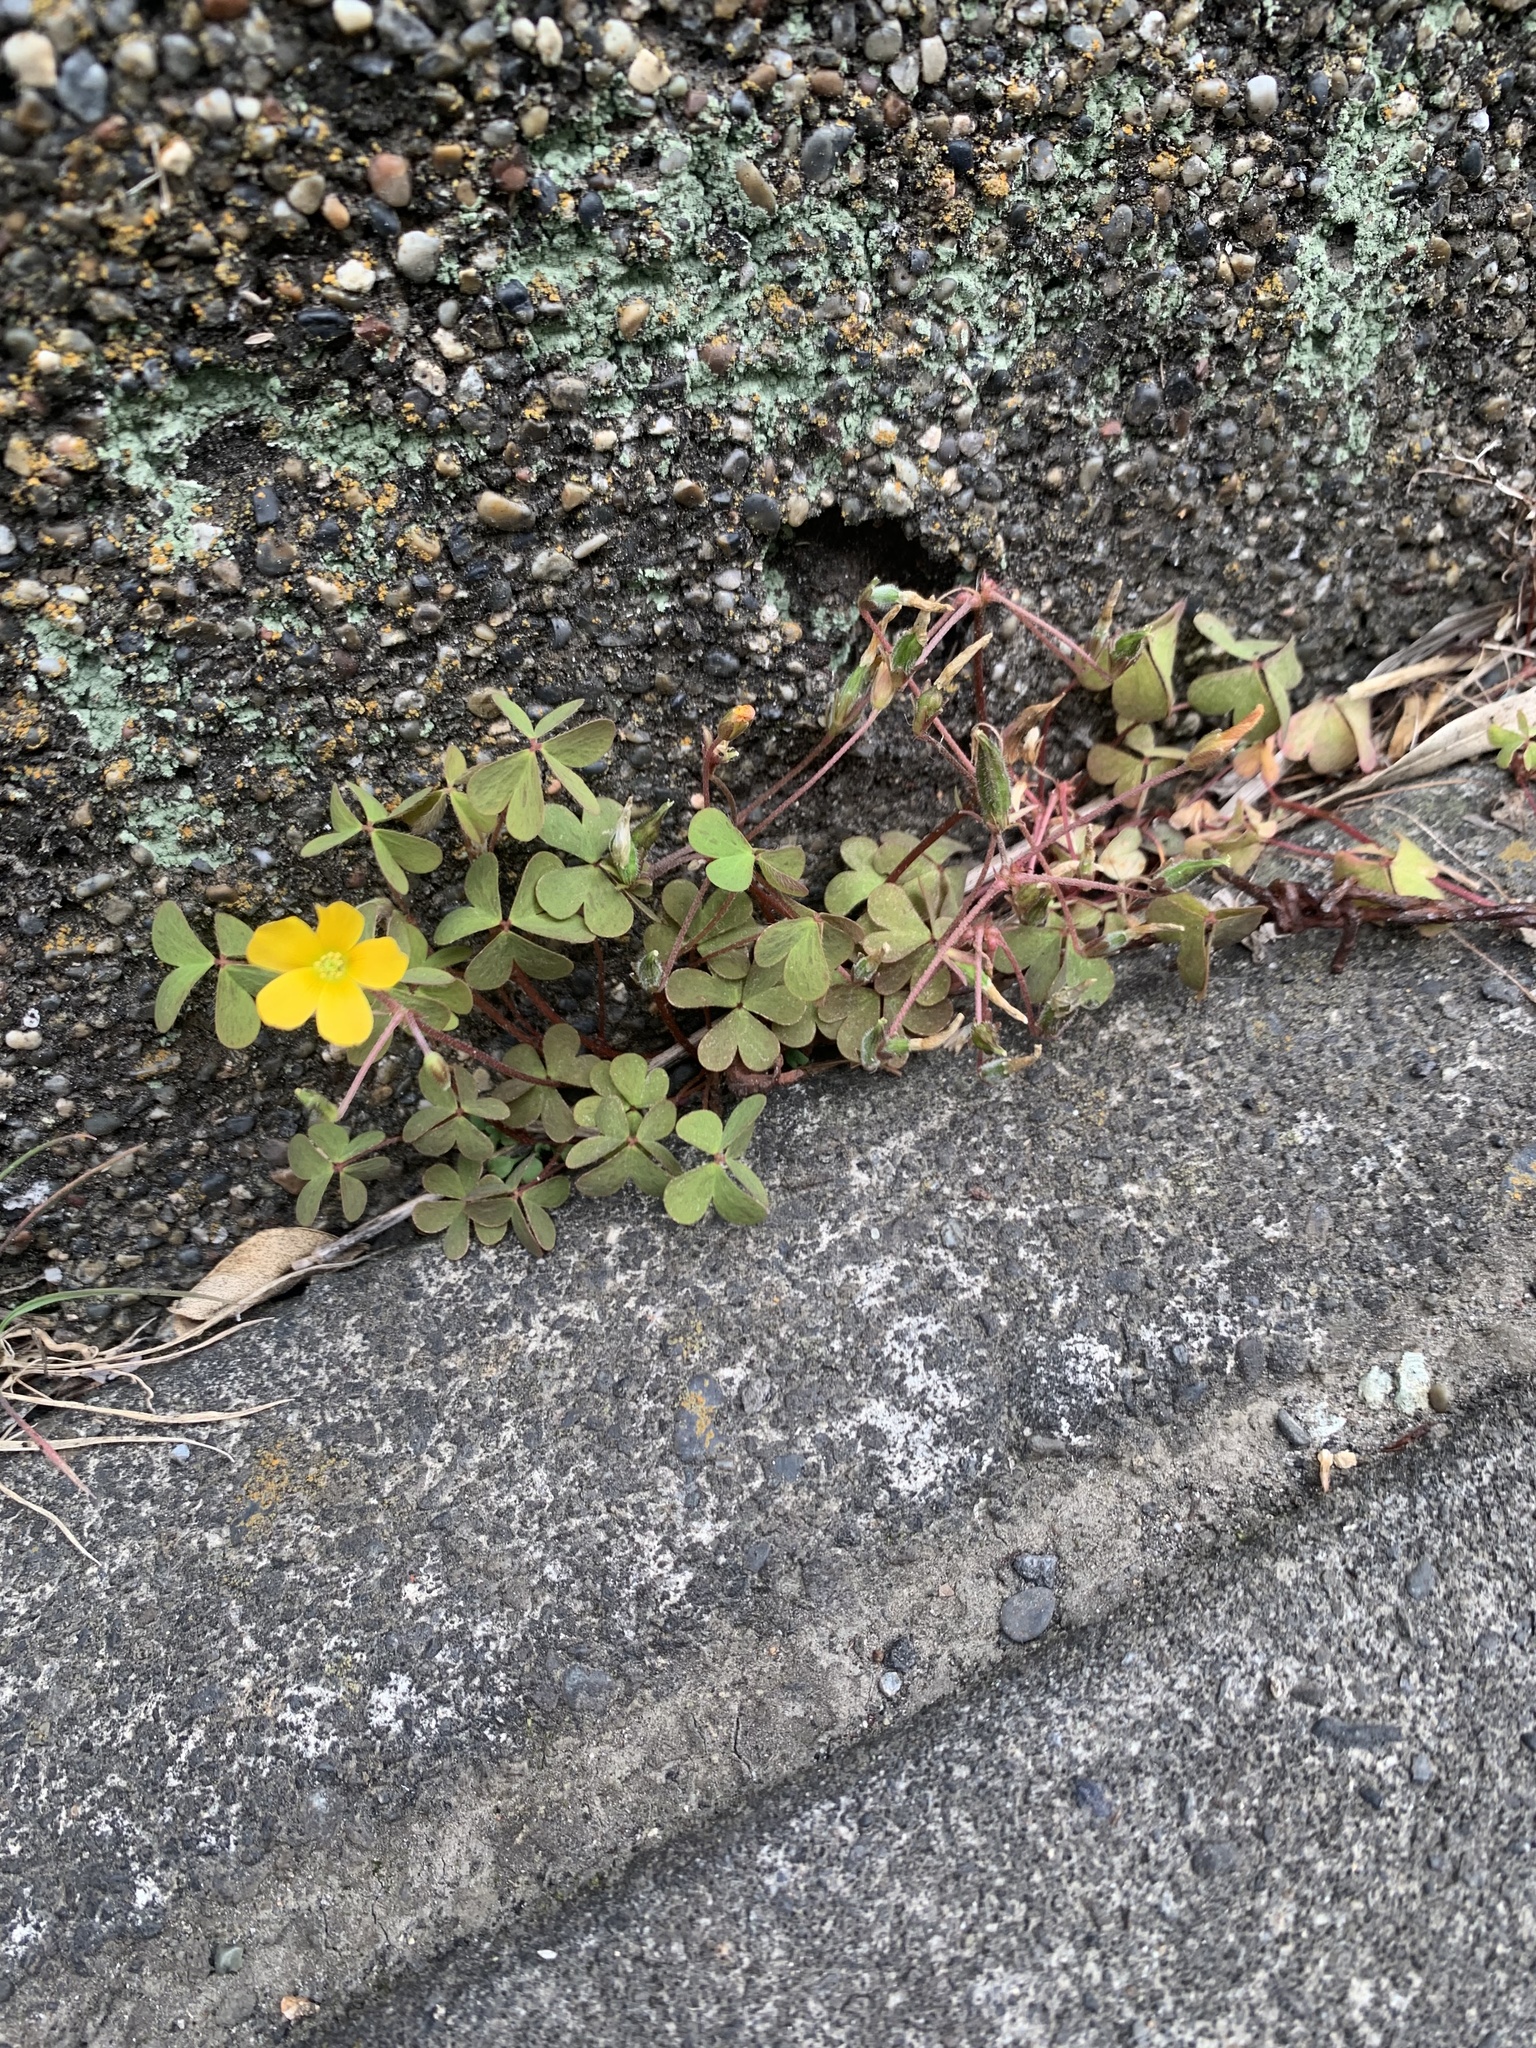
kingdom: Plantae
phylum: Tracheophyta
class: Magnoliopsida
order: Oxalidales
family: Oxalidaceae
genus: Oxalis
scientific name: Oxalis corniculata
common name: Procumbent yellow-sorrel
